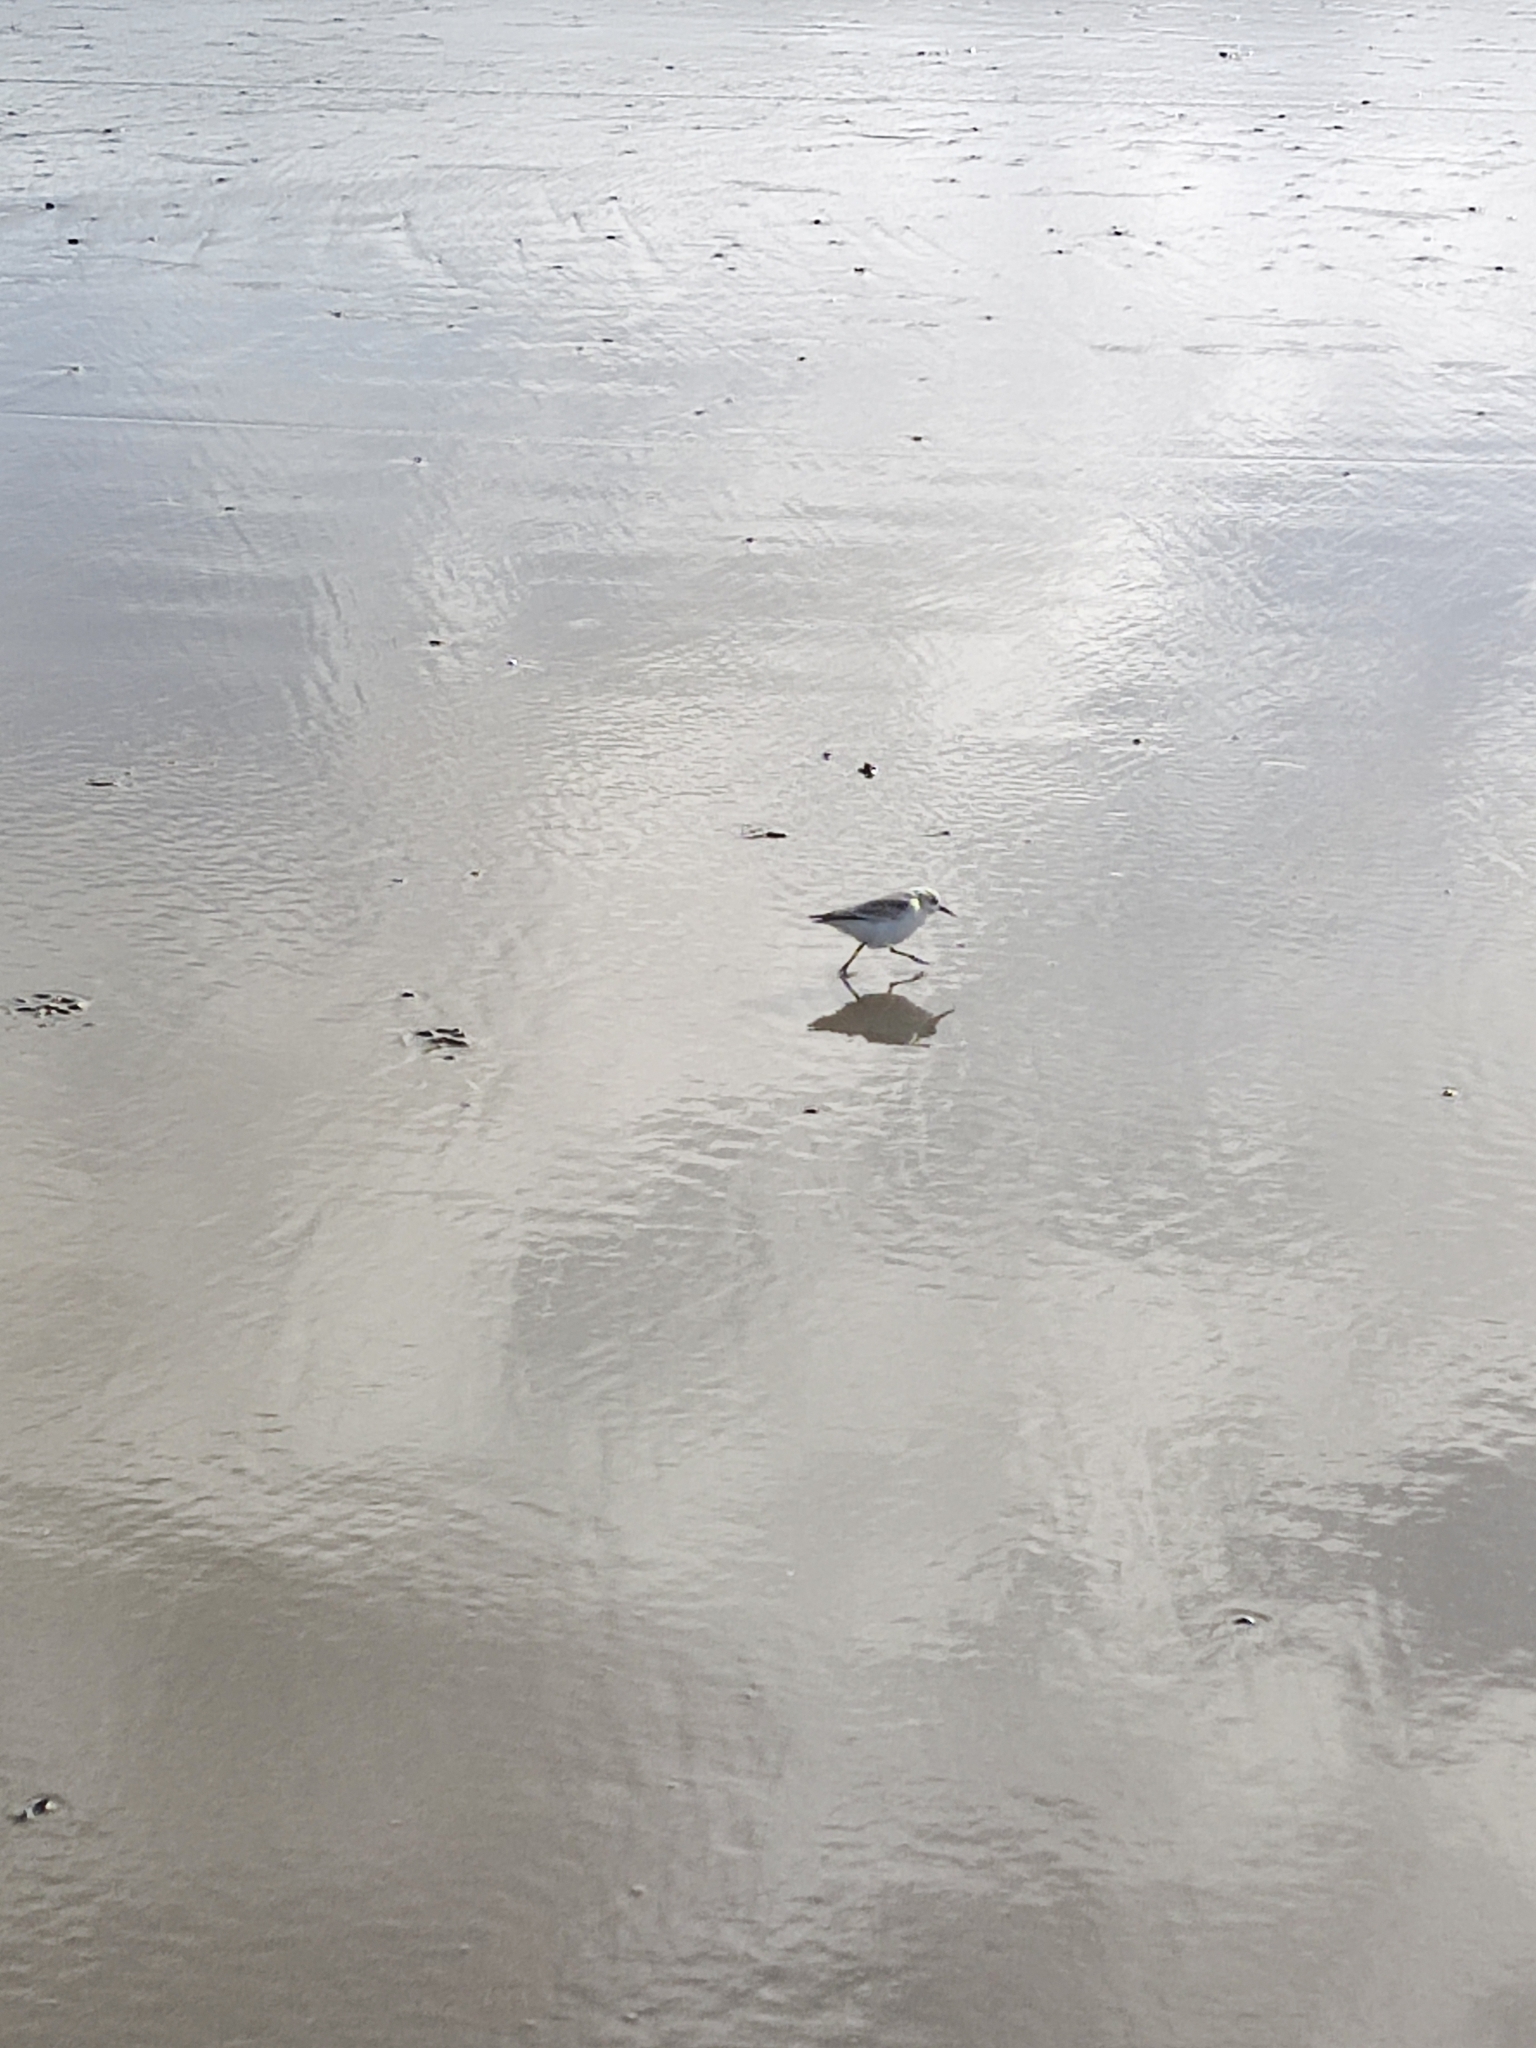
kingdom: Animalia
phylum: Chordata
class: Aves
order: Charadriiformes
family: Scolopacidae
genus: Calidris
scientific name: Calidris alba
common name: Sanderling
